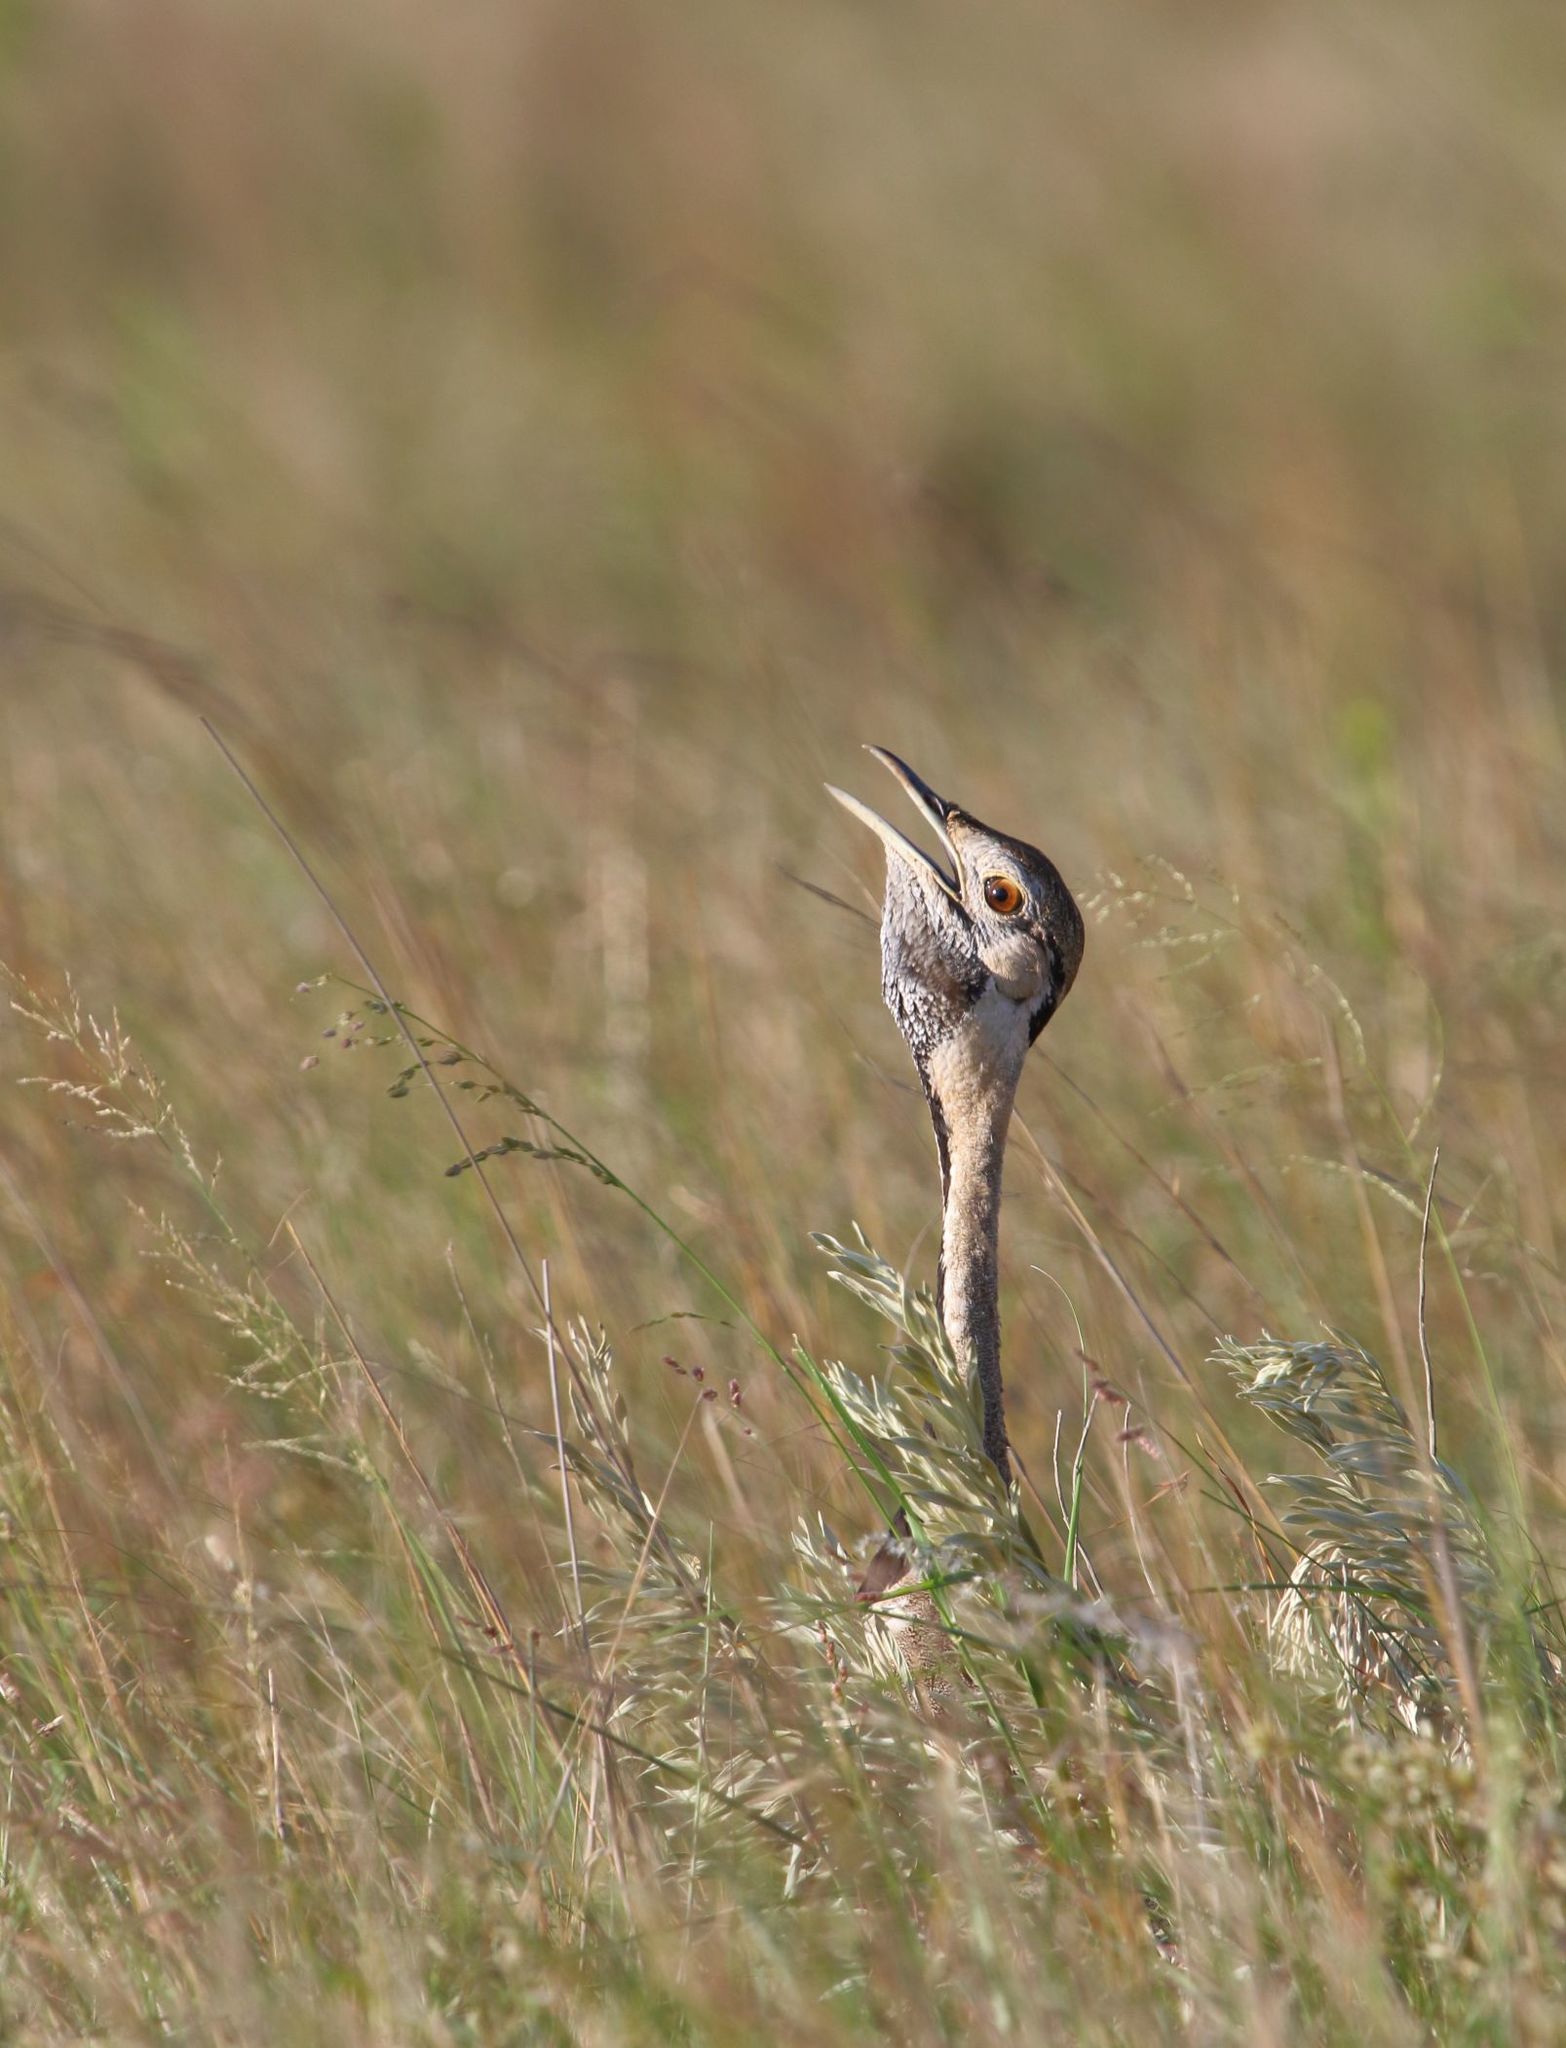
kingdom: Animalia
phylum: Chordata
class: Aves
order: Otidiformes
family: Otididae
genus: Lissotis
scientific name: Lissotis melanogaster
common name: Black-bellied bustard
